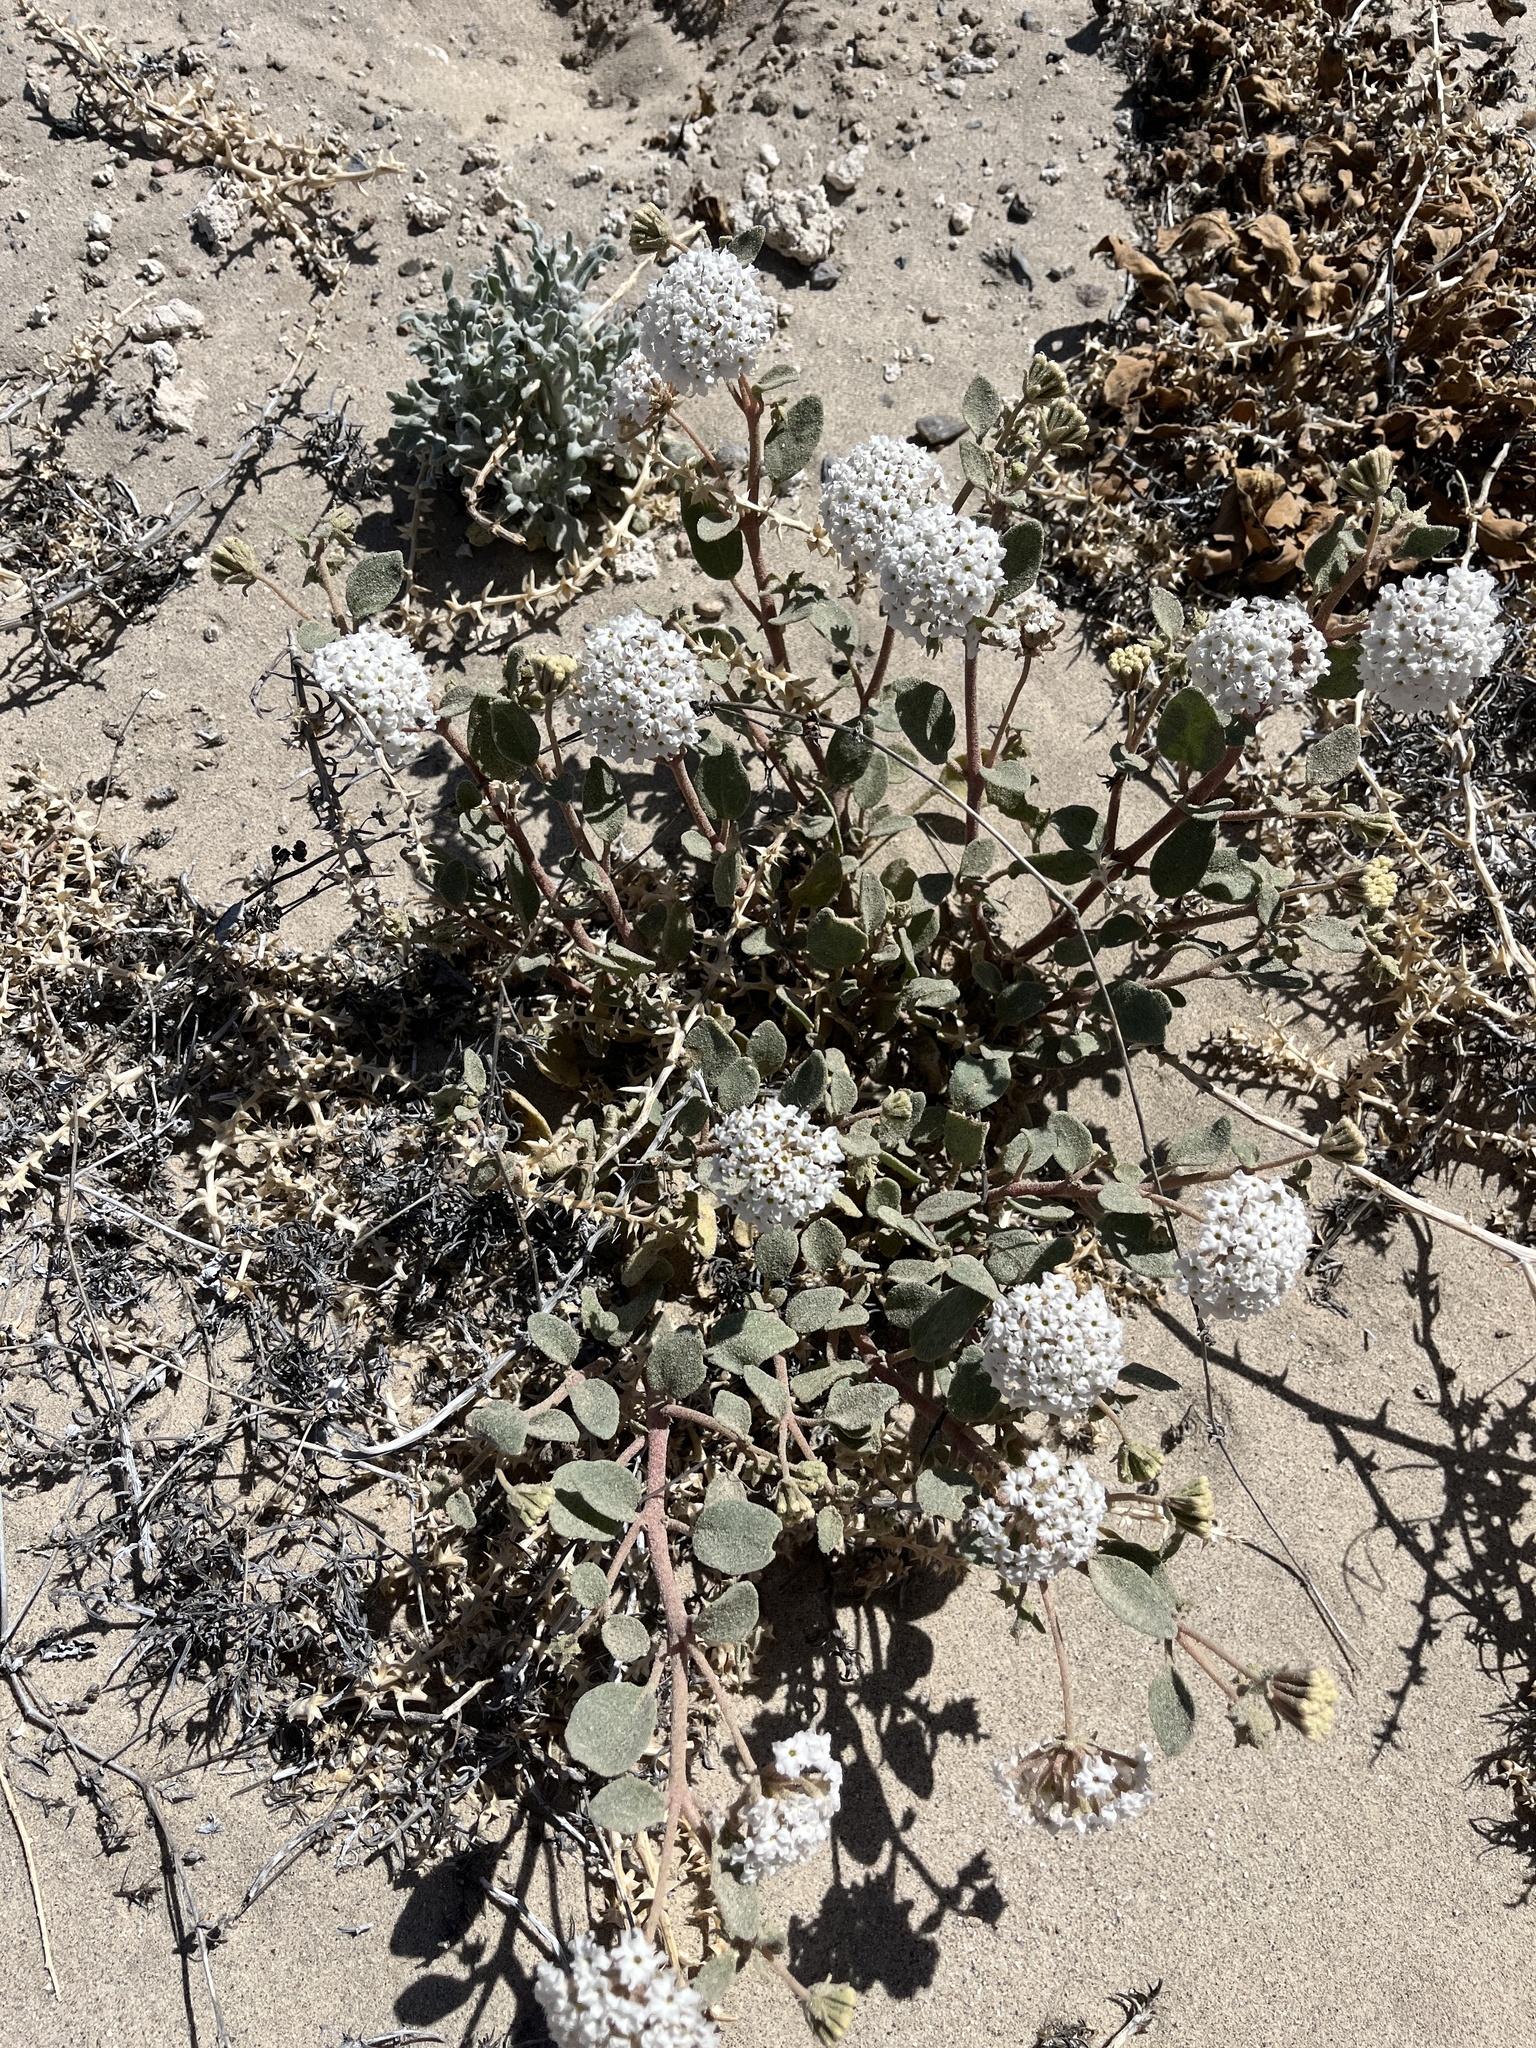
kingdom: Plantae
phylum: Tracheophyta
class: Magnoliopsida
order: Caryophyllales
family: Nyctaginaceae
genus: Abronia
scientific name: Abronia turbinata
